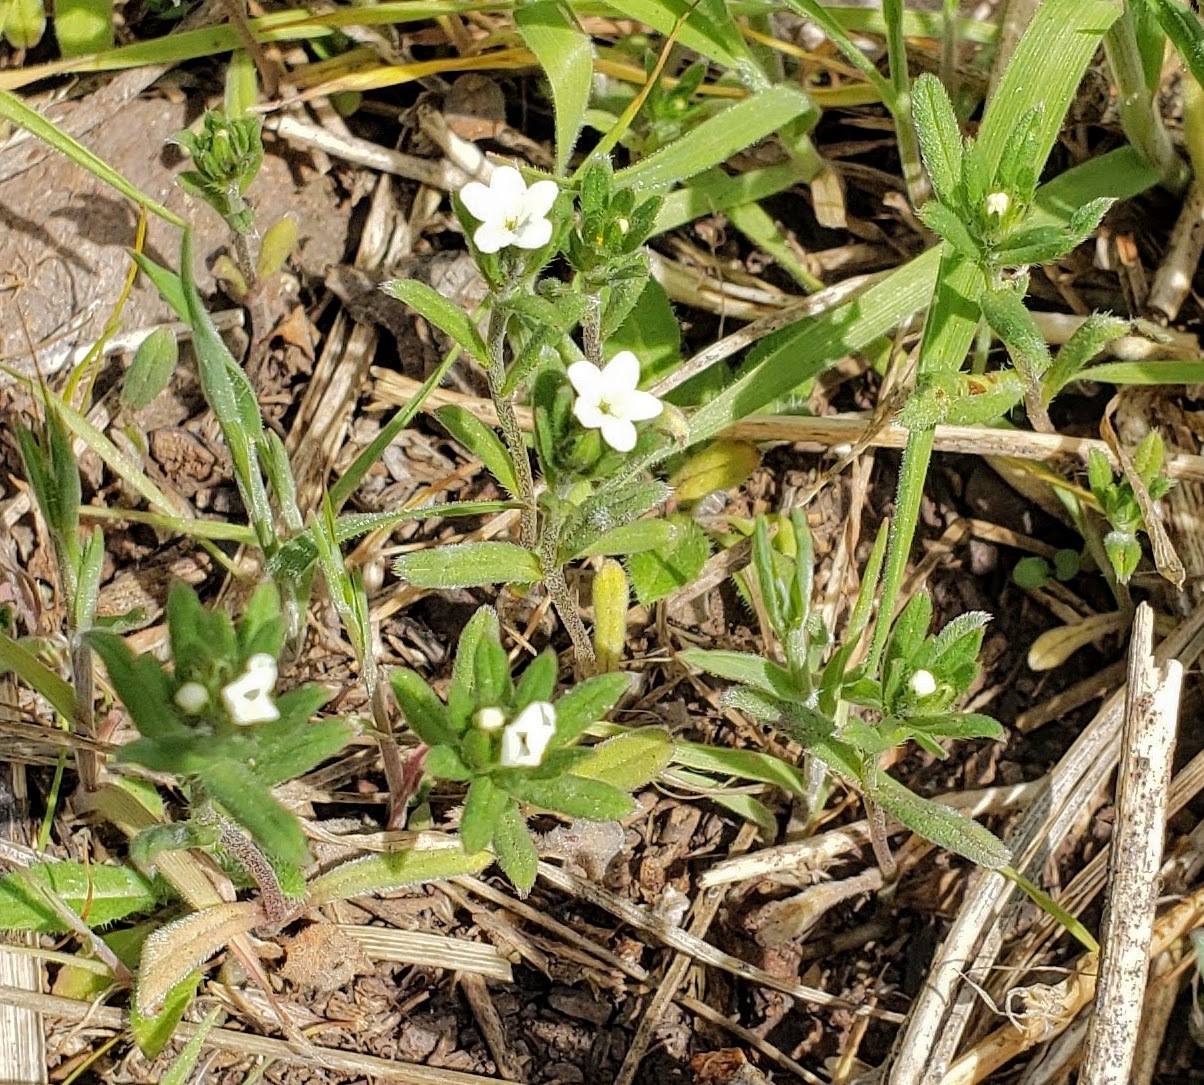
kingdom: Plantae
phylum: Tracheophyta
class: Magnoliopsida
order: Boraginales
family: Boraginaceae
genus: Buglossoides
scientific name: Buglossoides arvensis
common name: Corn gromwell
